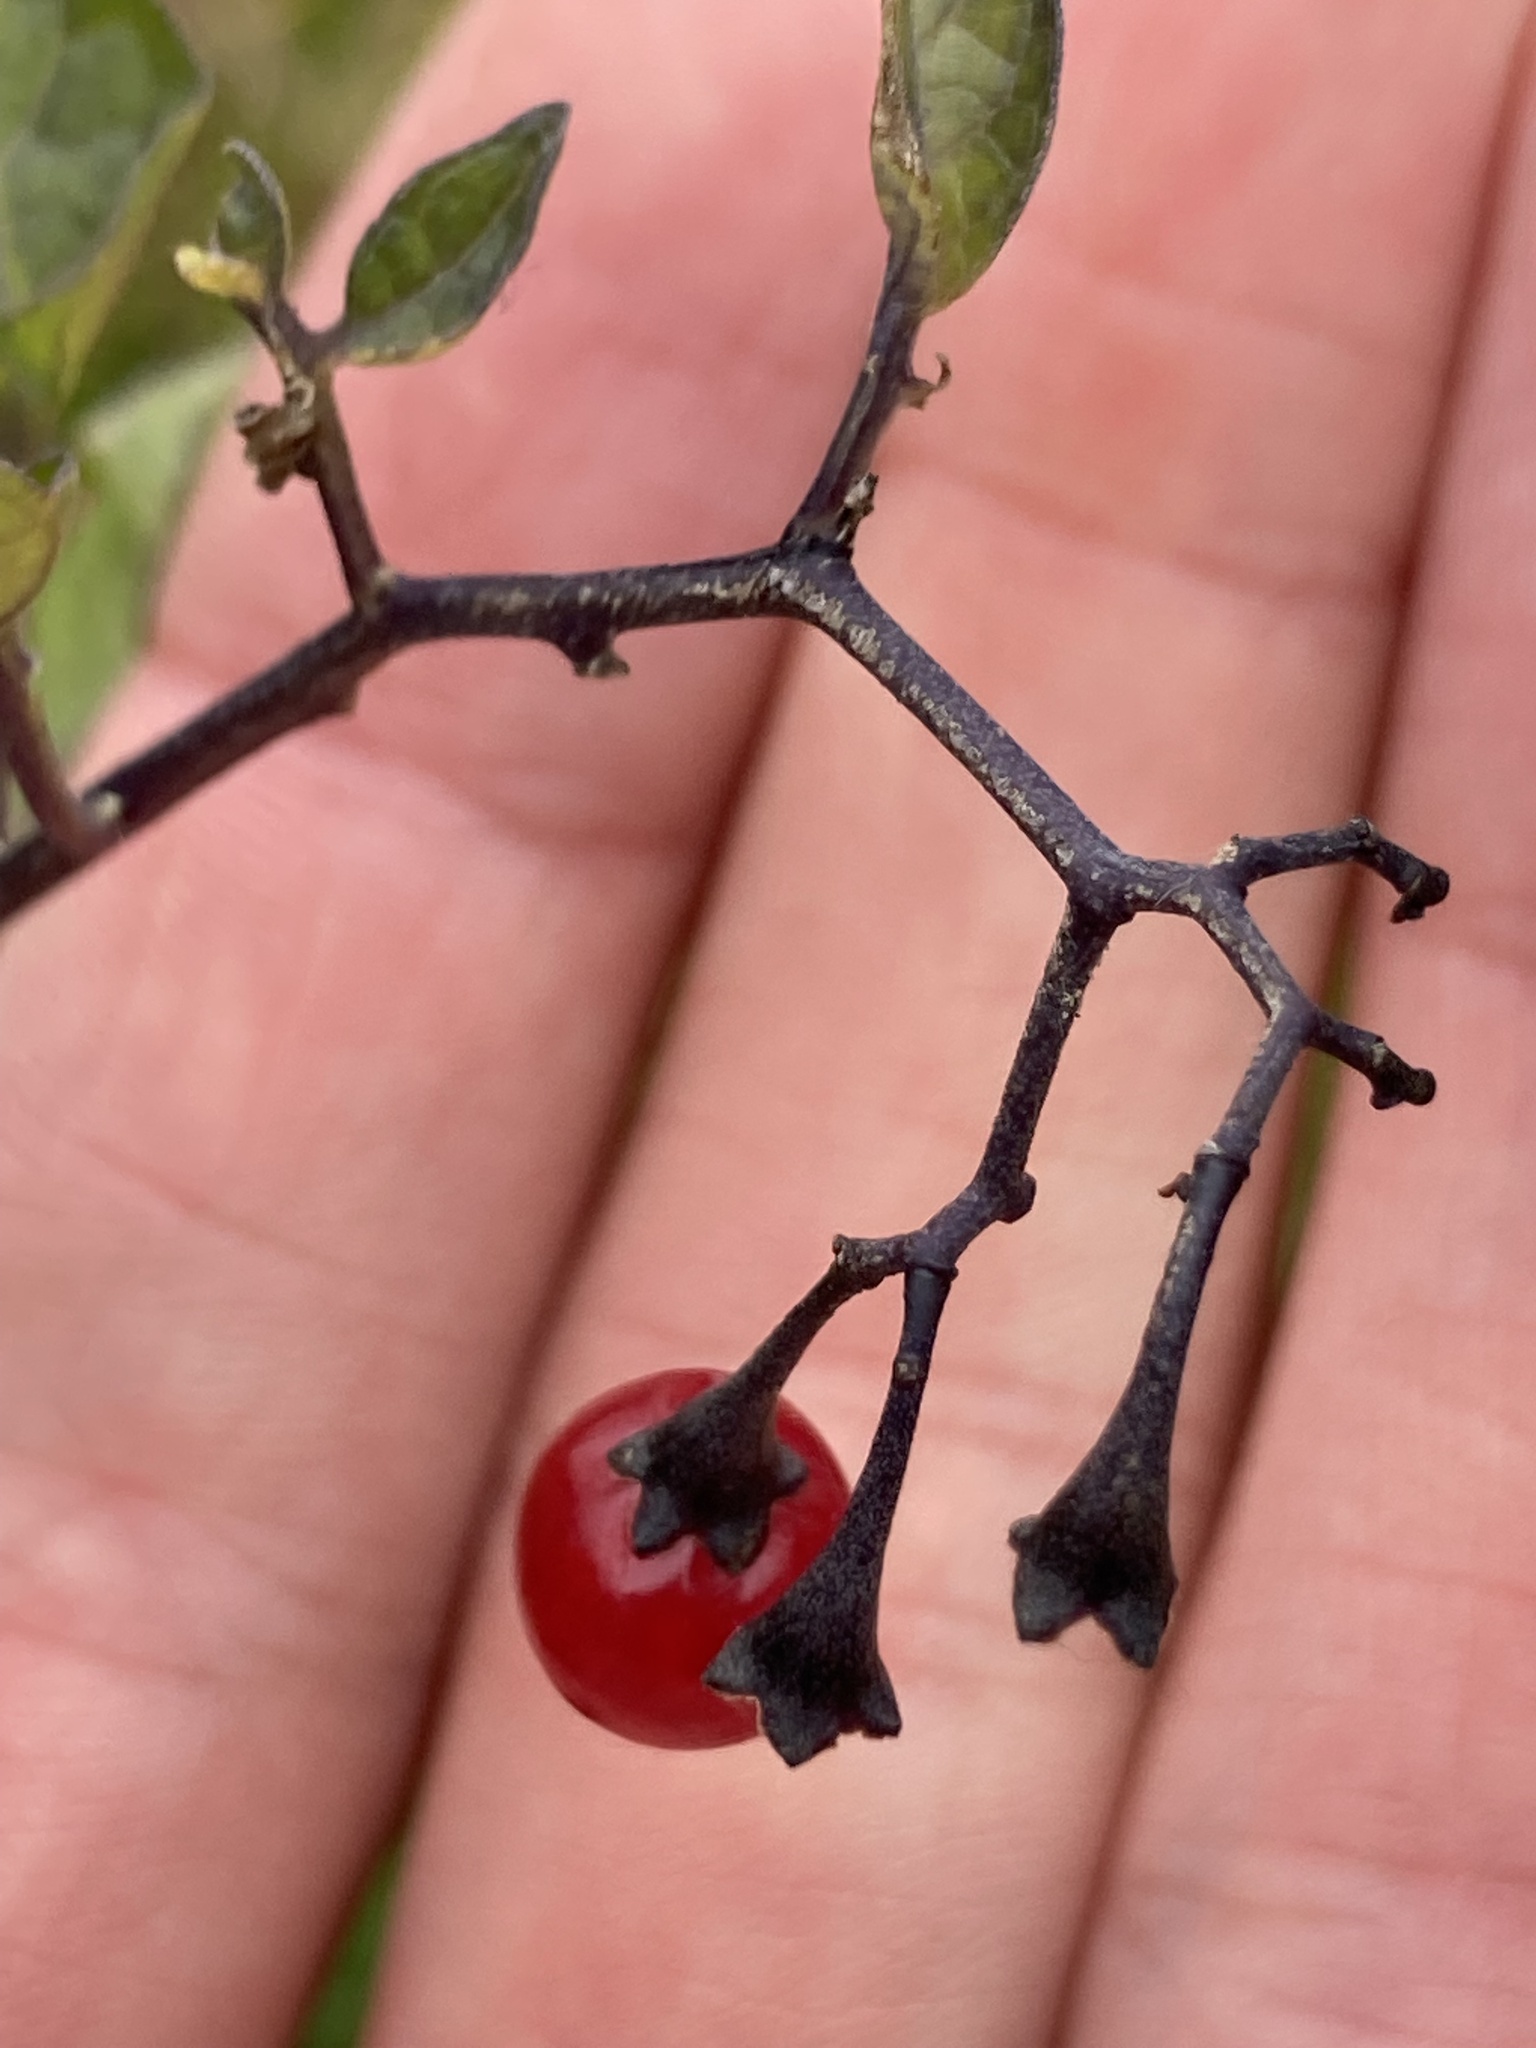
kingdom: Plantae
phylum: Tracheophyta
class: Magnoliopsida
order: Solanales
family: Solanaceae
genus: Solanum
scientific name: Solanum dulcamara
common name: Climbing nightshade
